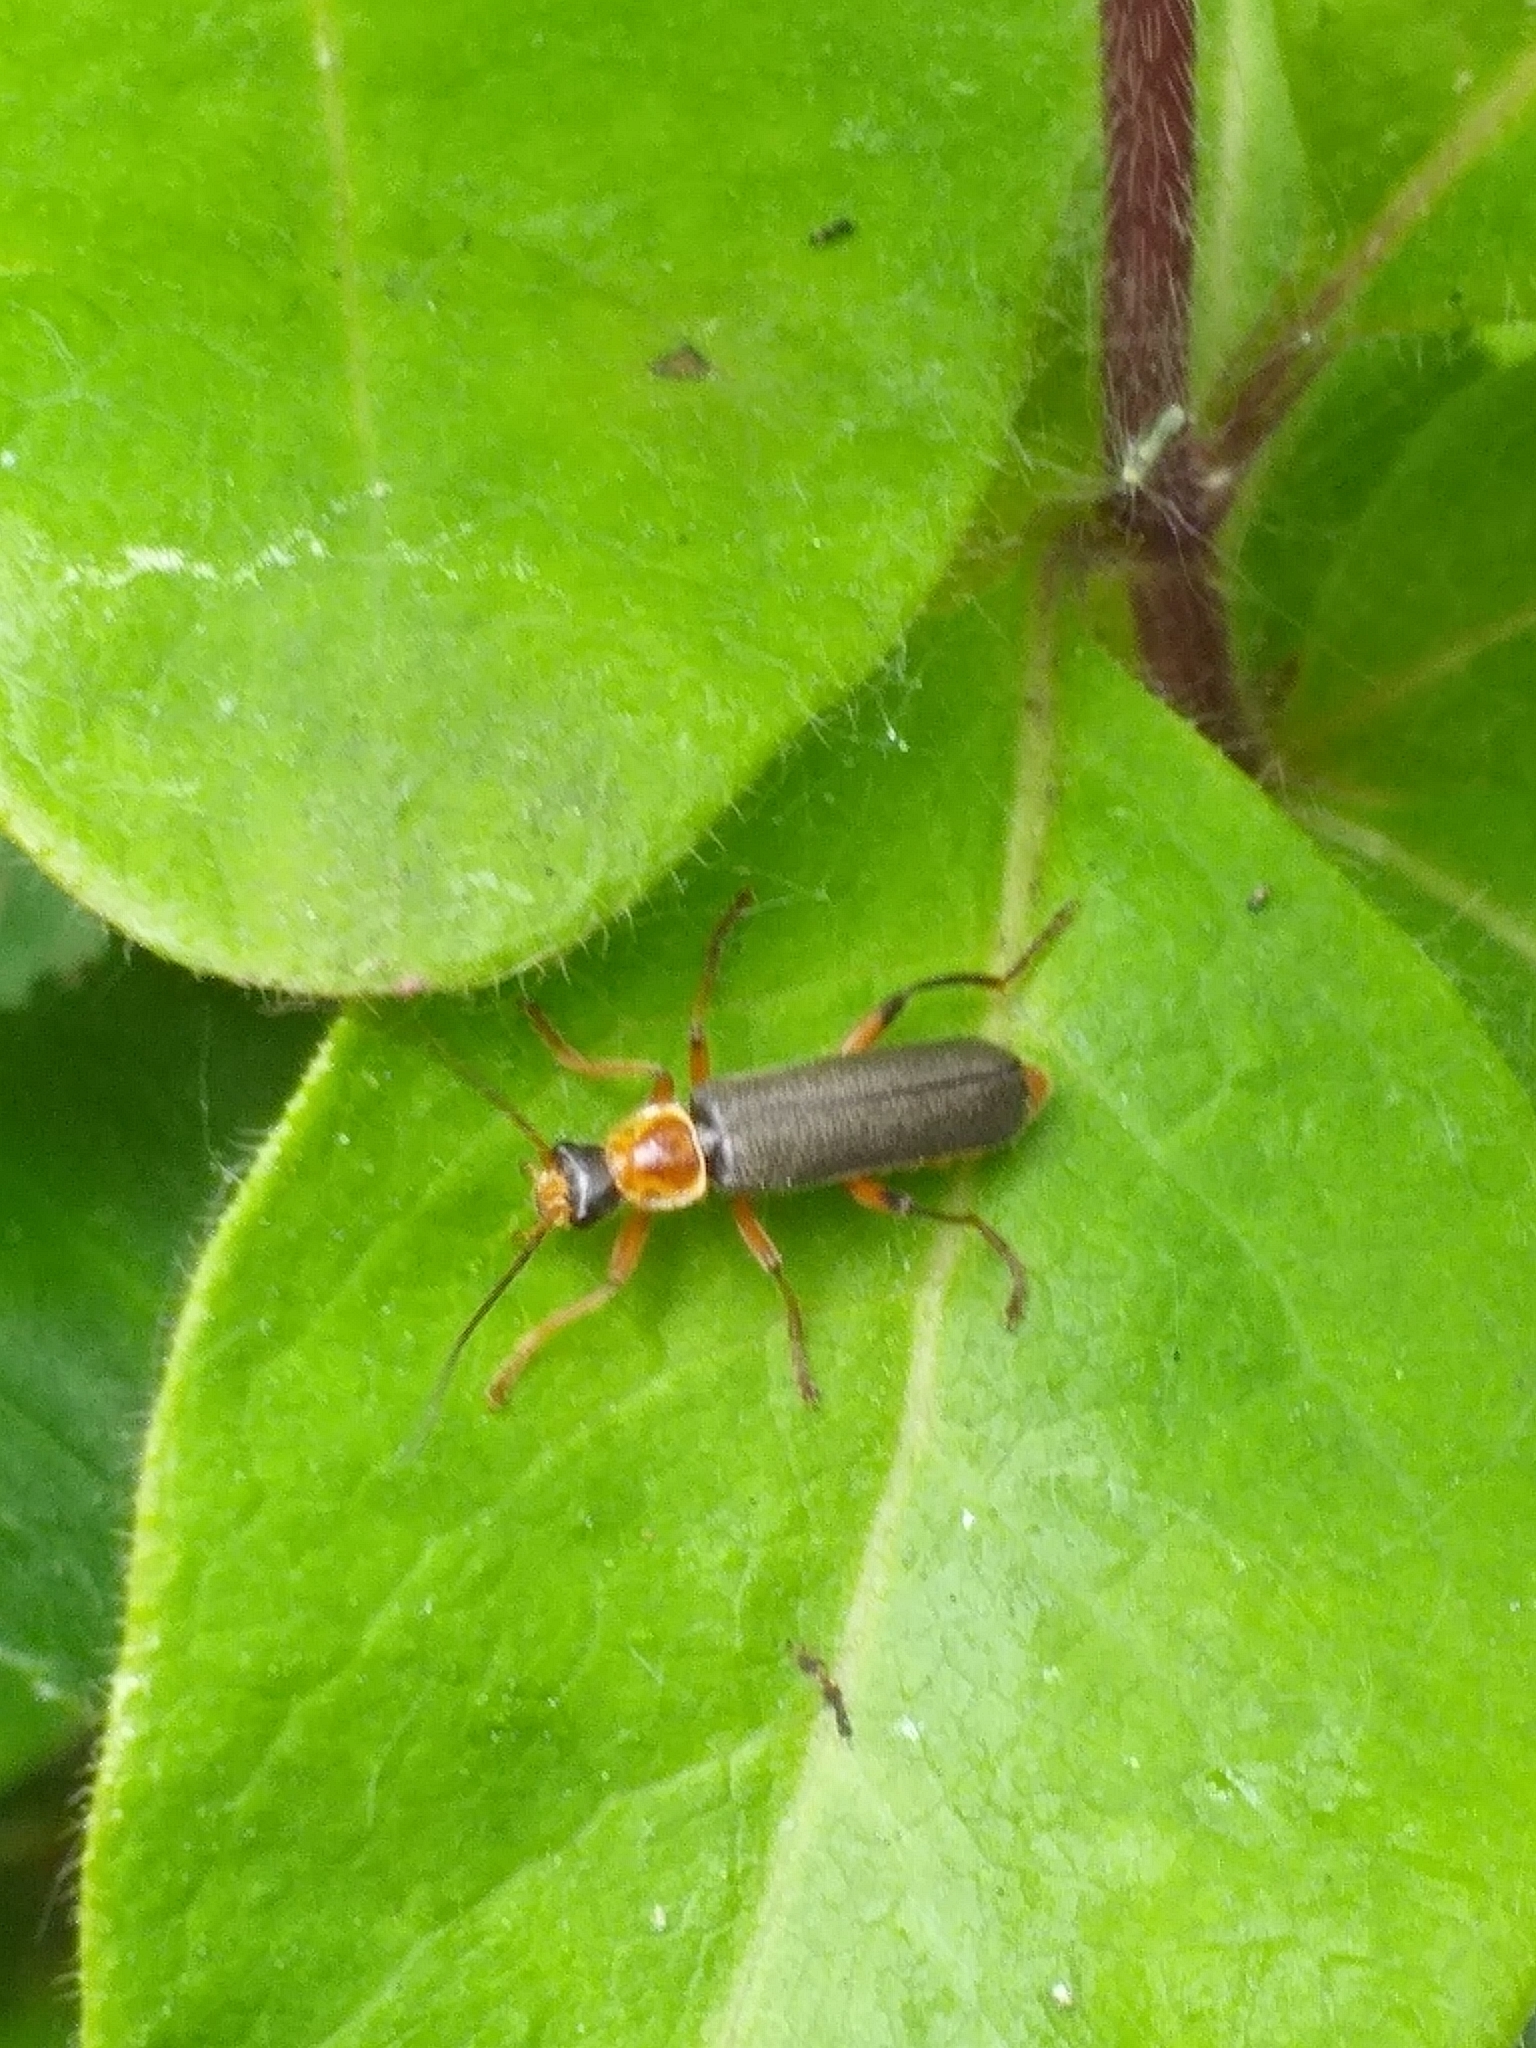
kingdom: Animalia
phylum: Arthropoda
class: Insecta
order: Coleoptera
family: Cantharidae
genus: Cantharis
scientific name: Cantharis nigricans
